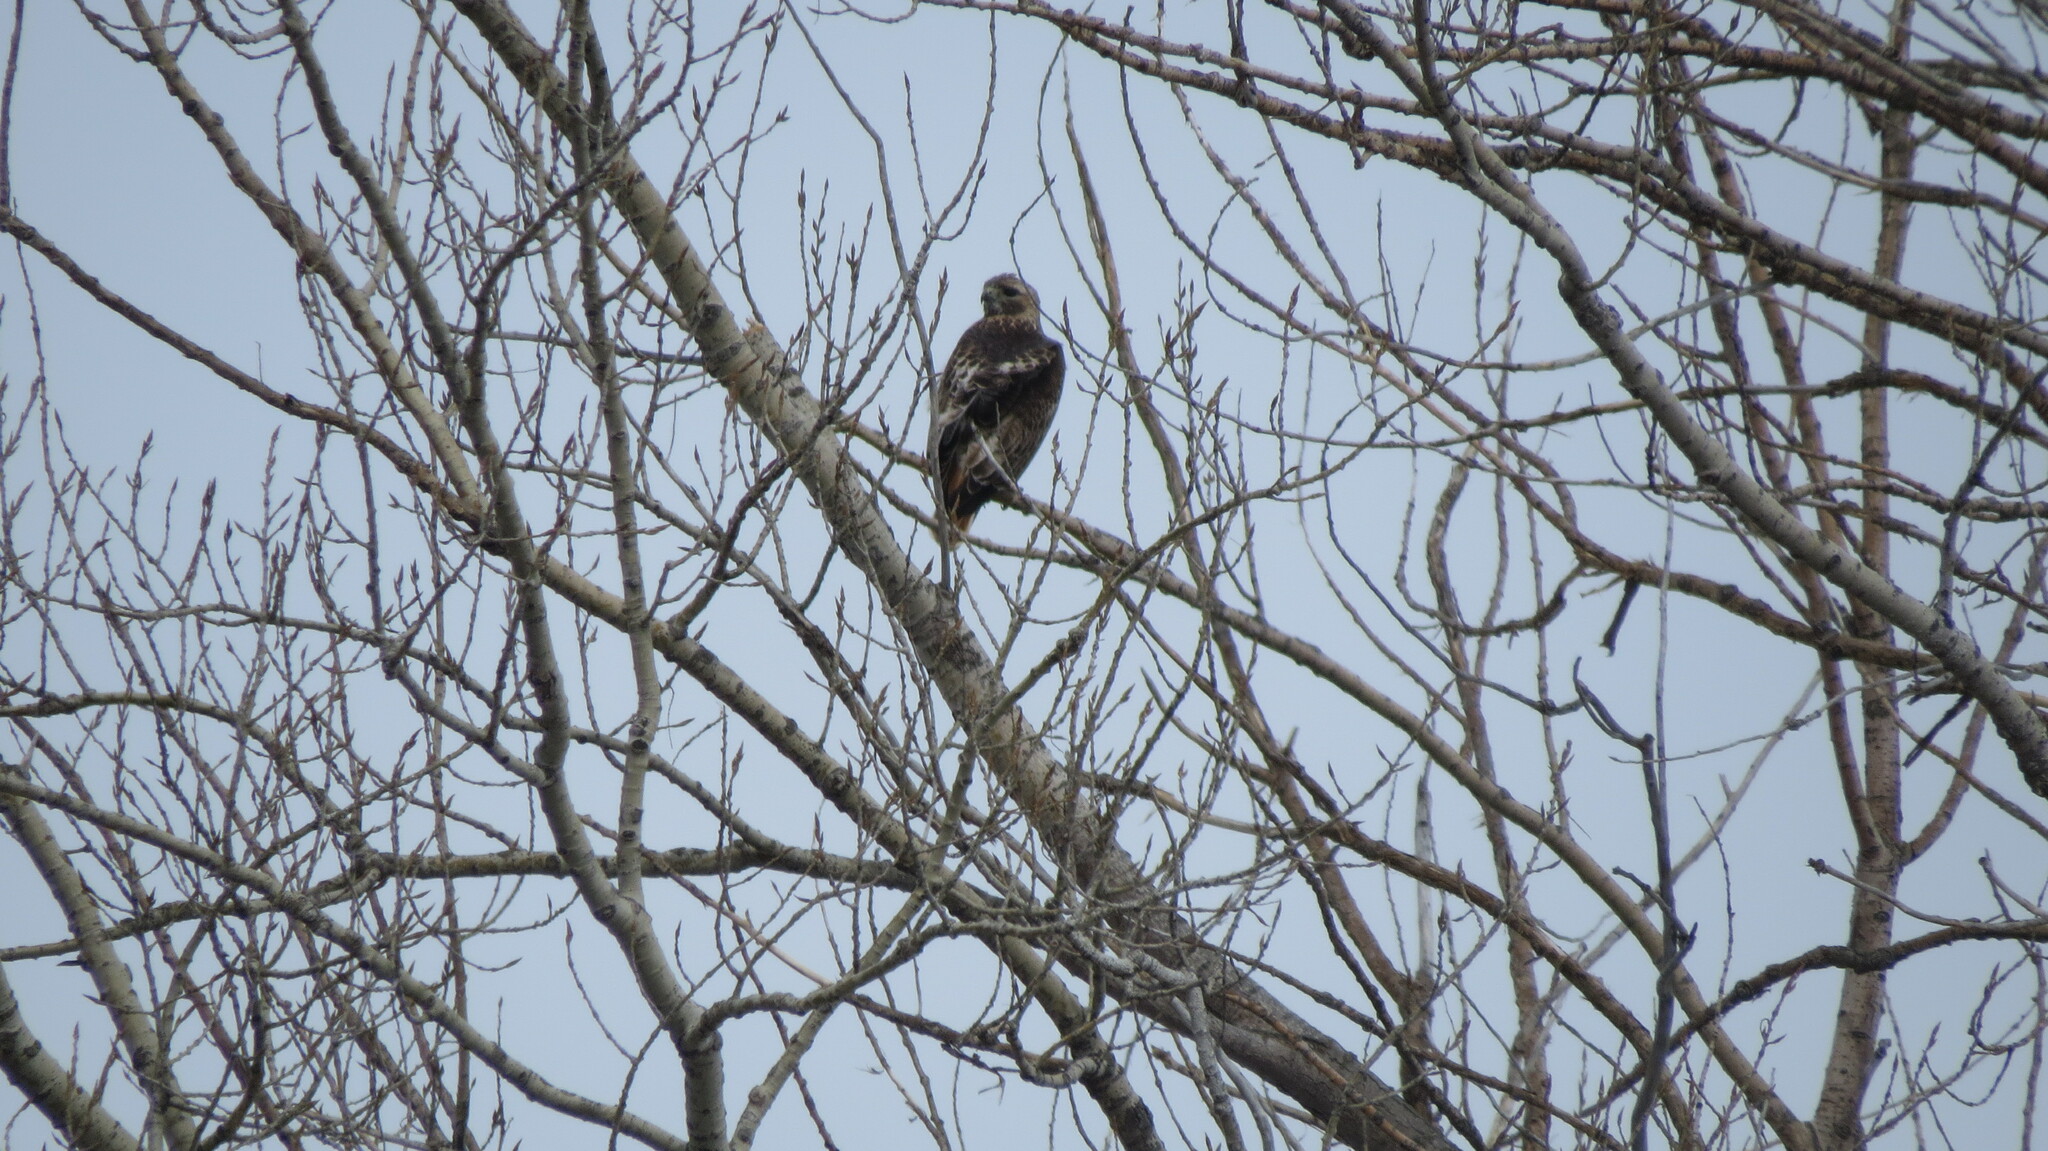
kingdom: Animalia
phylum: Chordata
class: Aves
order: Accipitriformes
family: Accipitridae
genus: Buteo
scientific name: Buteo jamaicensis
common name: Red-tailed hawk
